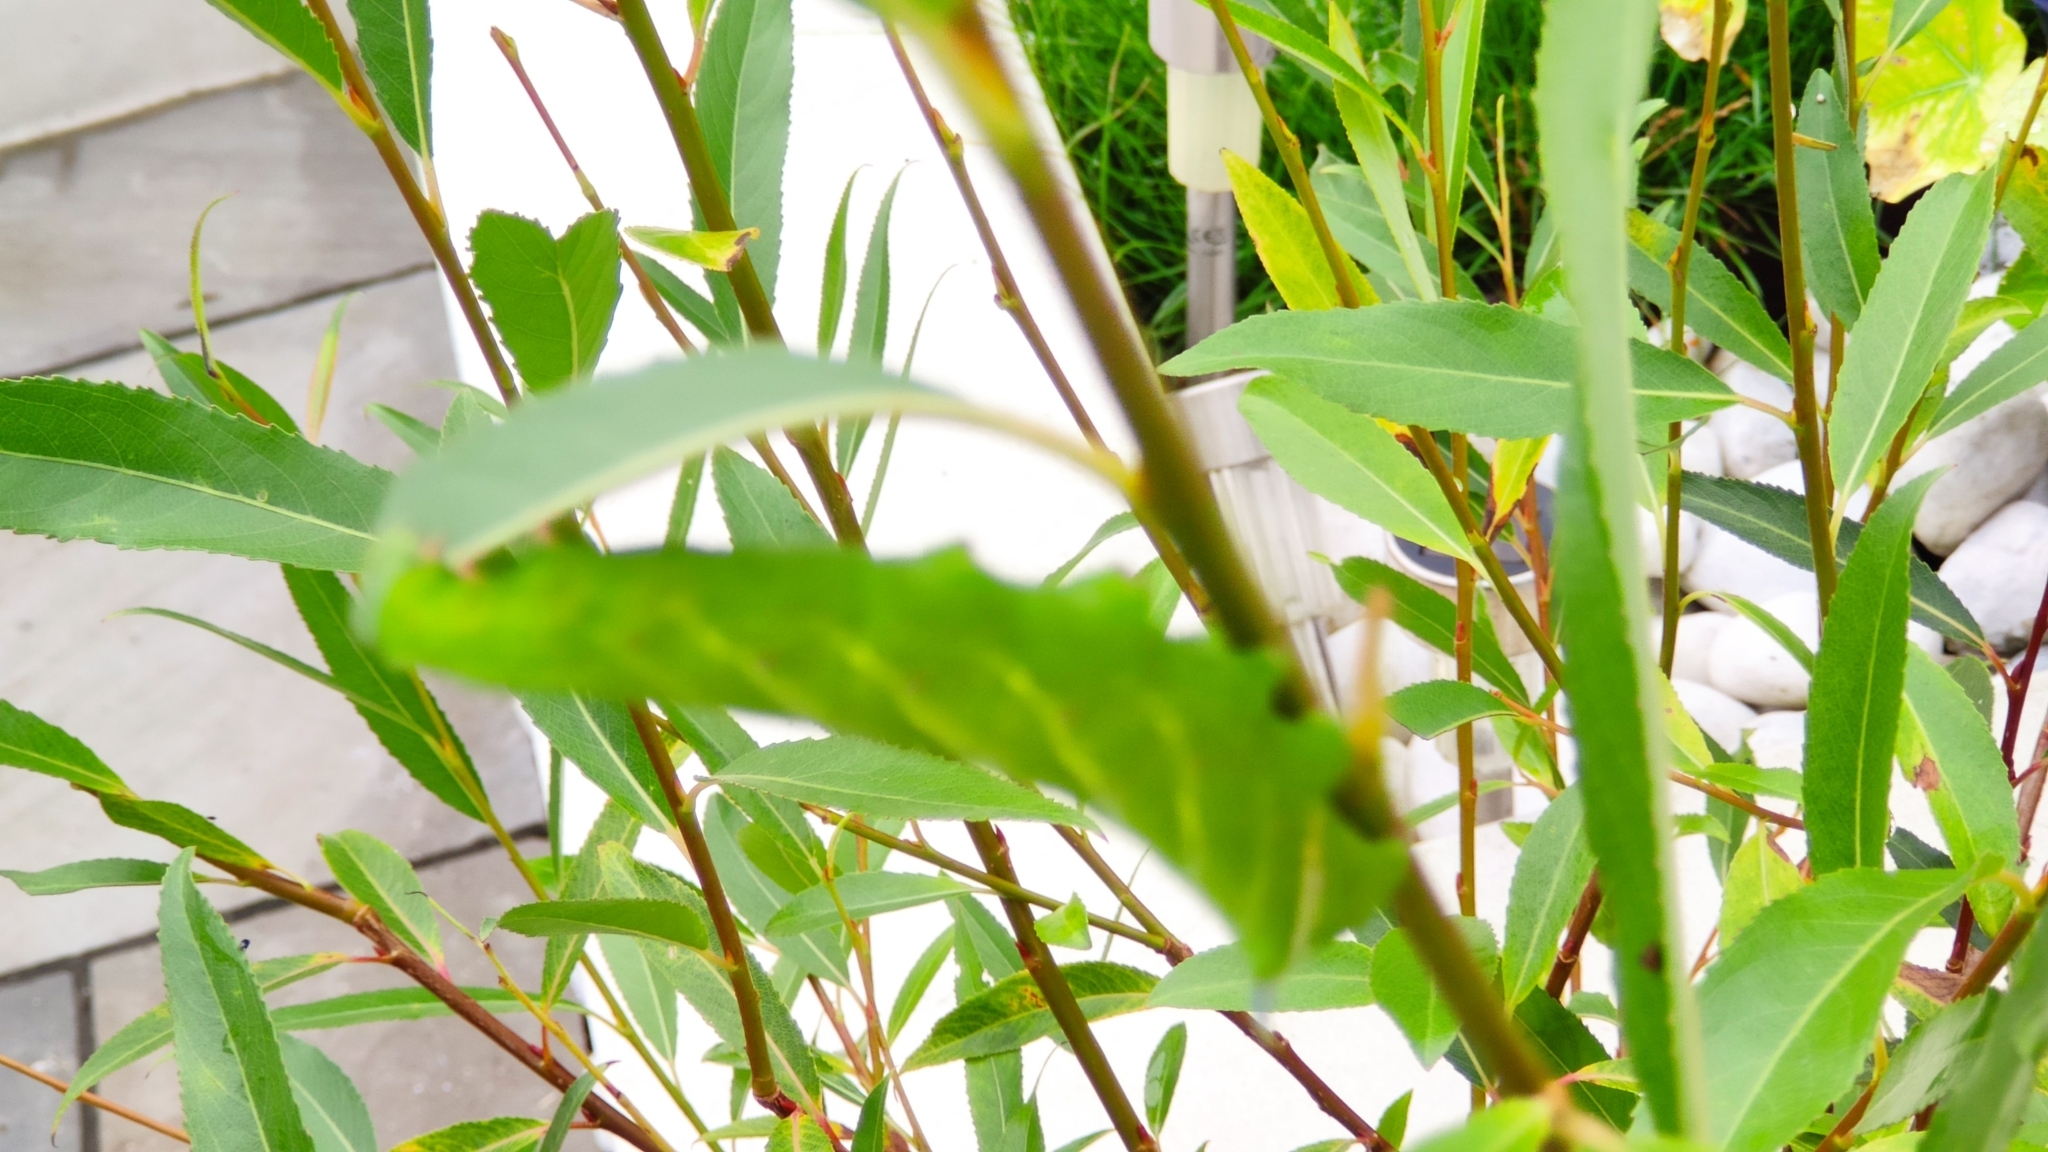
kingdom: Animalia
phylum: Arthropoda
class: Insecta
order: Lepidoptera
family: Sphingidae
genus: Smerinthus
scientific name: Smerinthus ocellata
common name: Eyed hawk-moth
